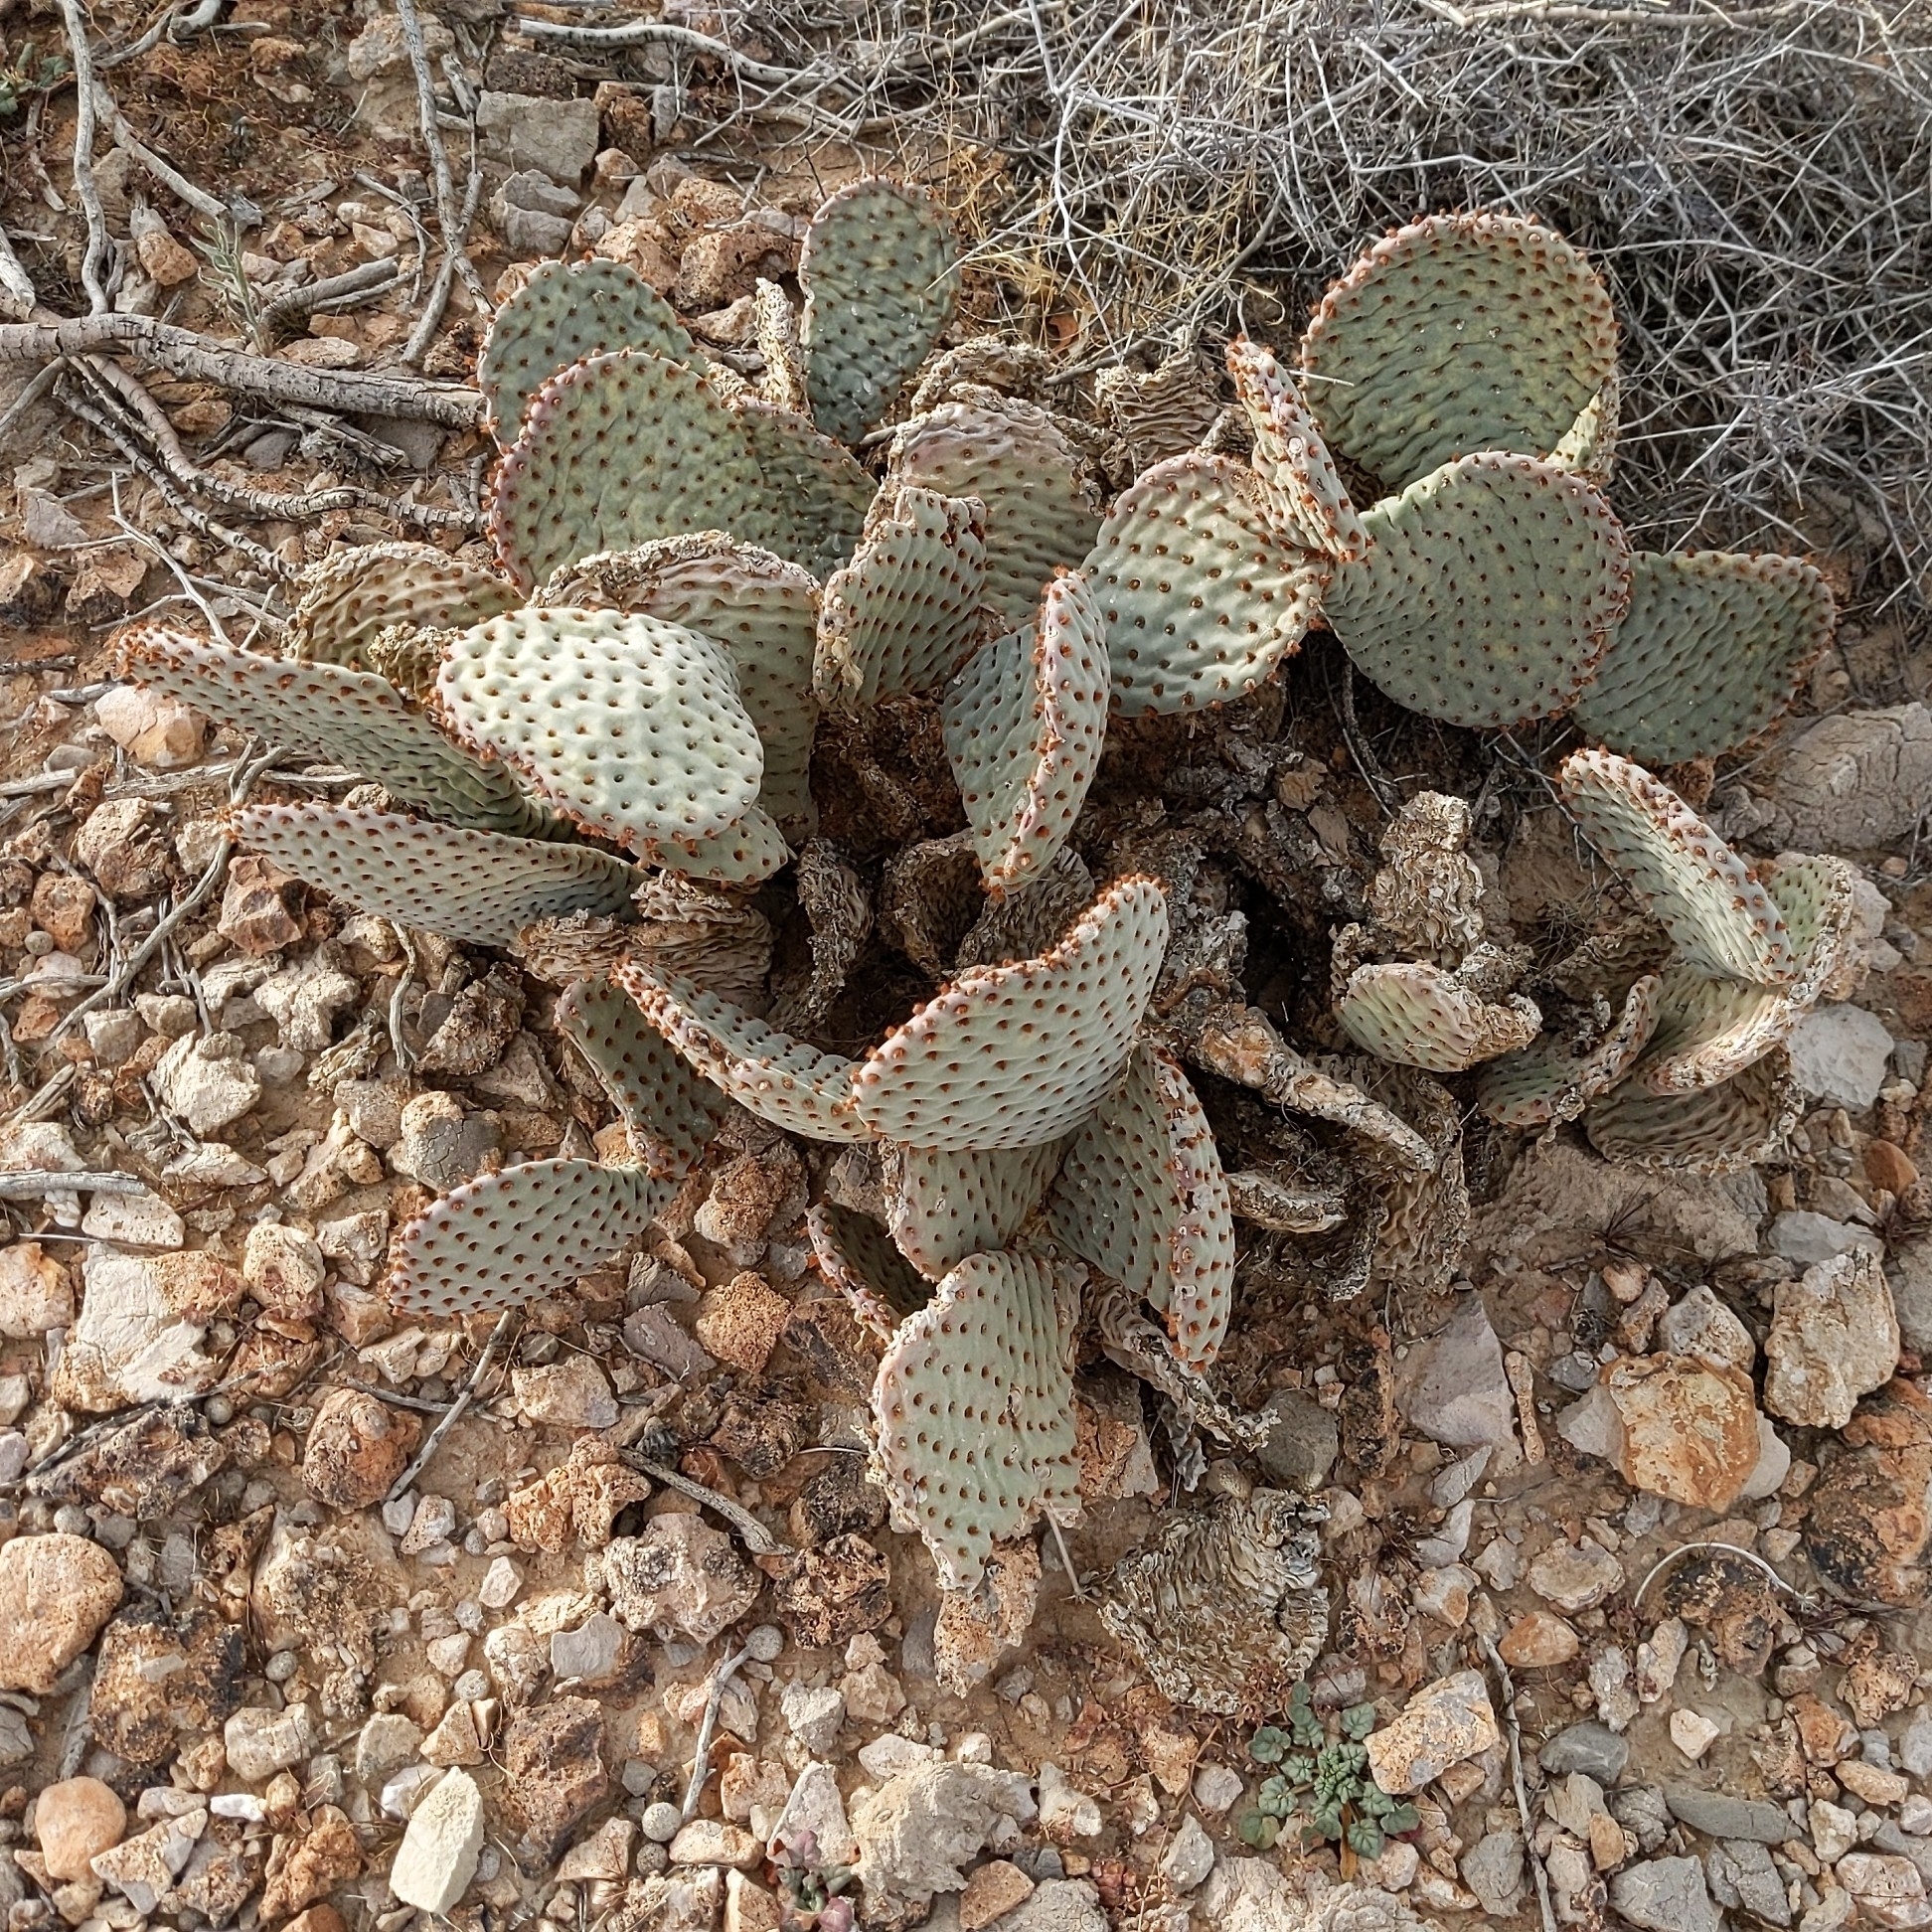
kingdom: Plantae
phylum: Tracheophyta
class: Magnoliopsida
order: Caryophyllales
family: Cactaceae
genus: Opuntia
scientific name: Opuntia basilaris
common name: Beavertail prickly-pear
